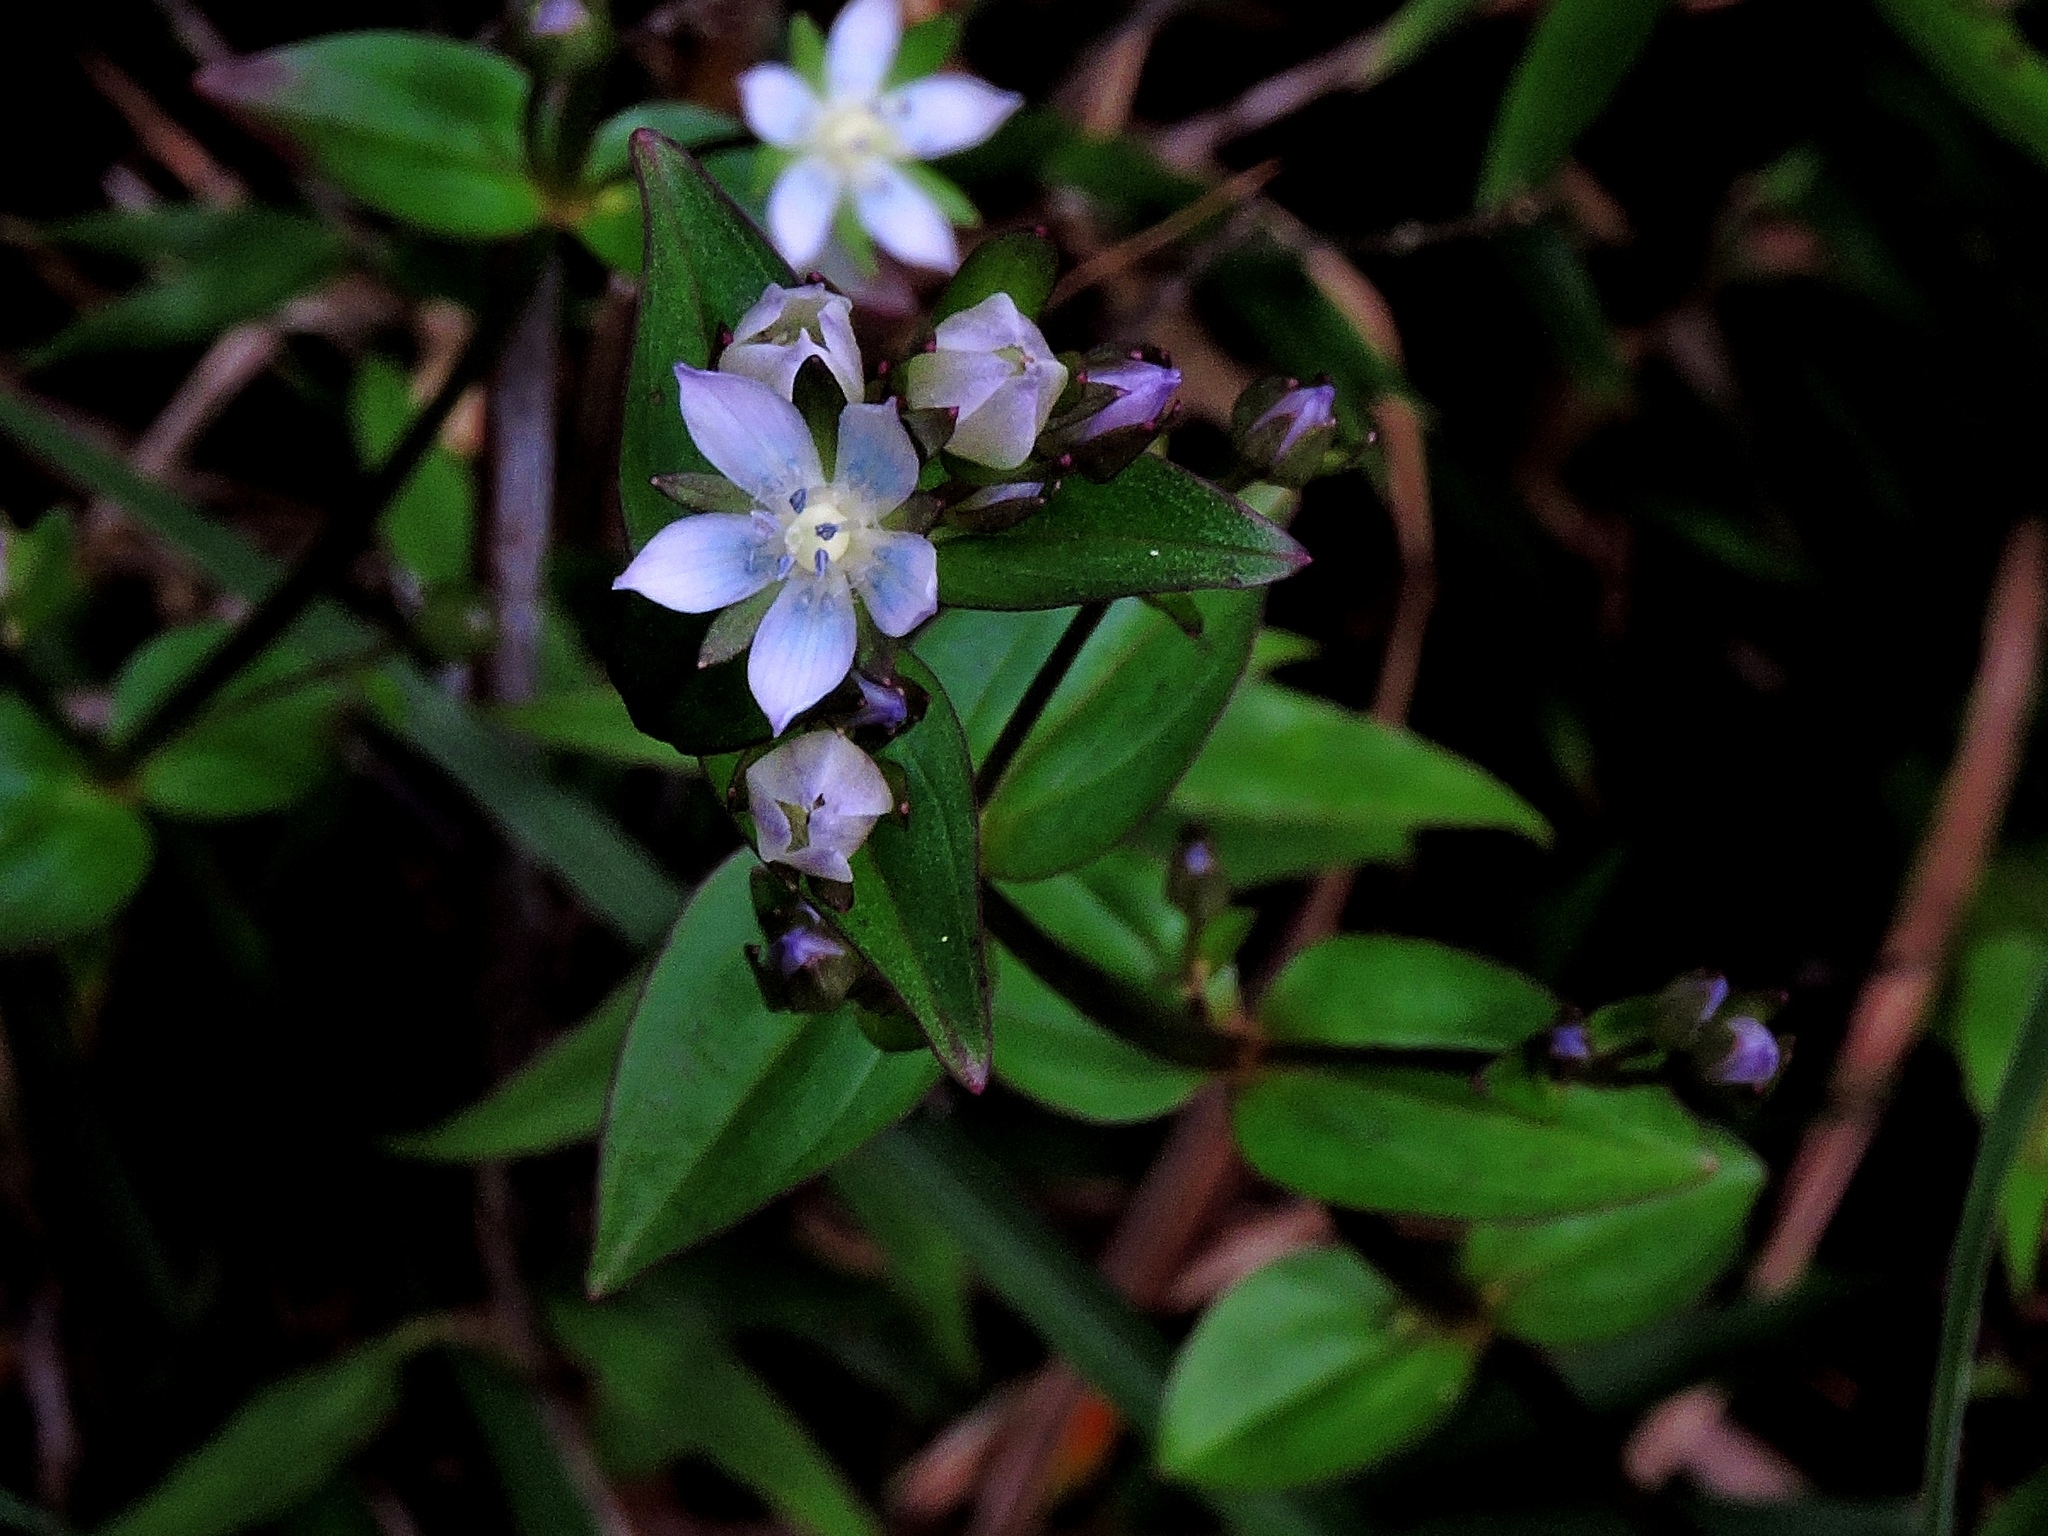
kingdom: Plantae
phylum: Tracheophyta
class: Magnoliopsida
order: Gentianales
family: Gentianaceae
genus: Swertia
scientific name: Swertia macrosperma
